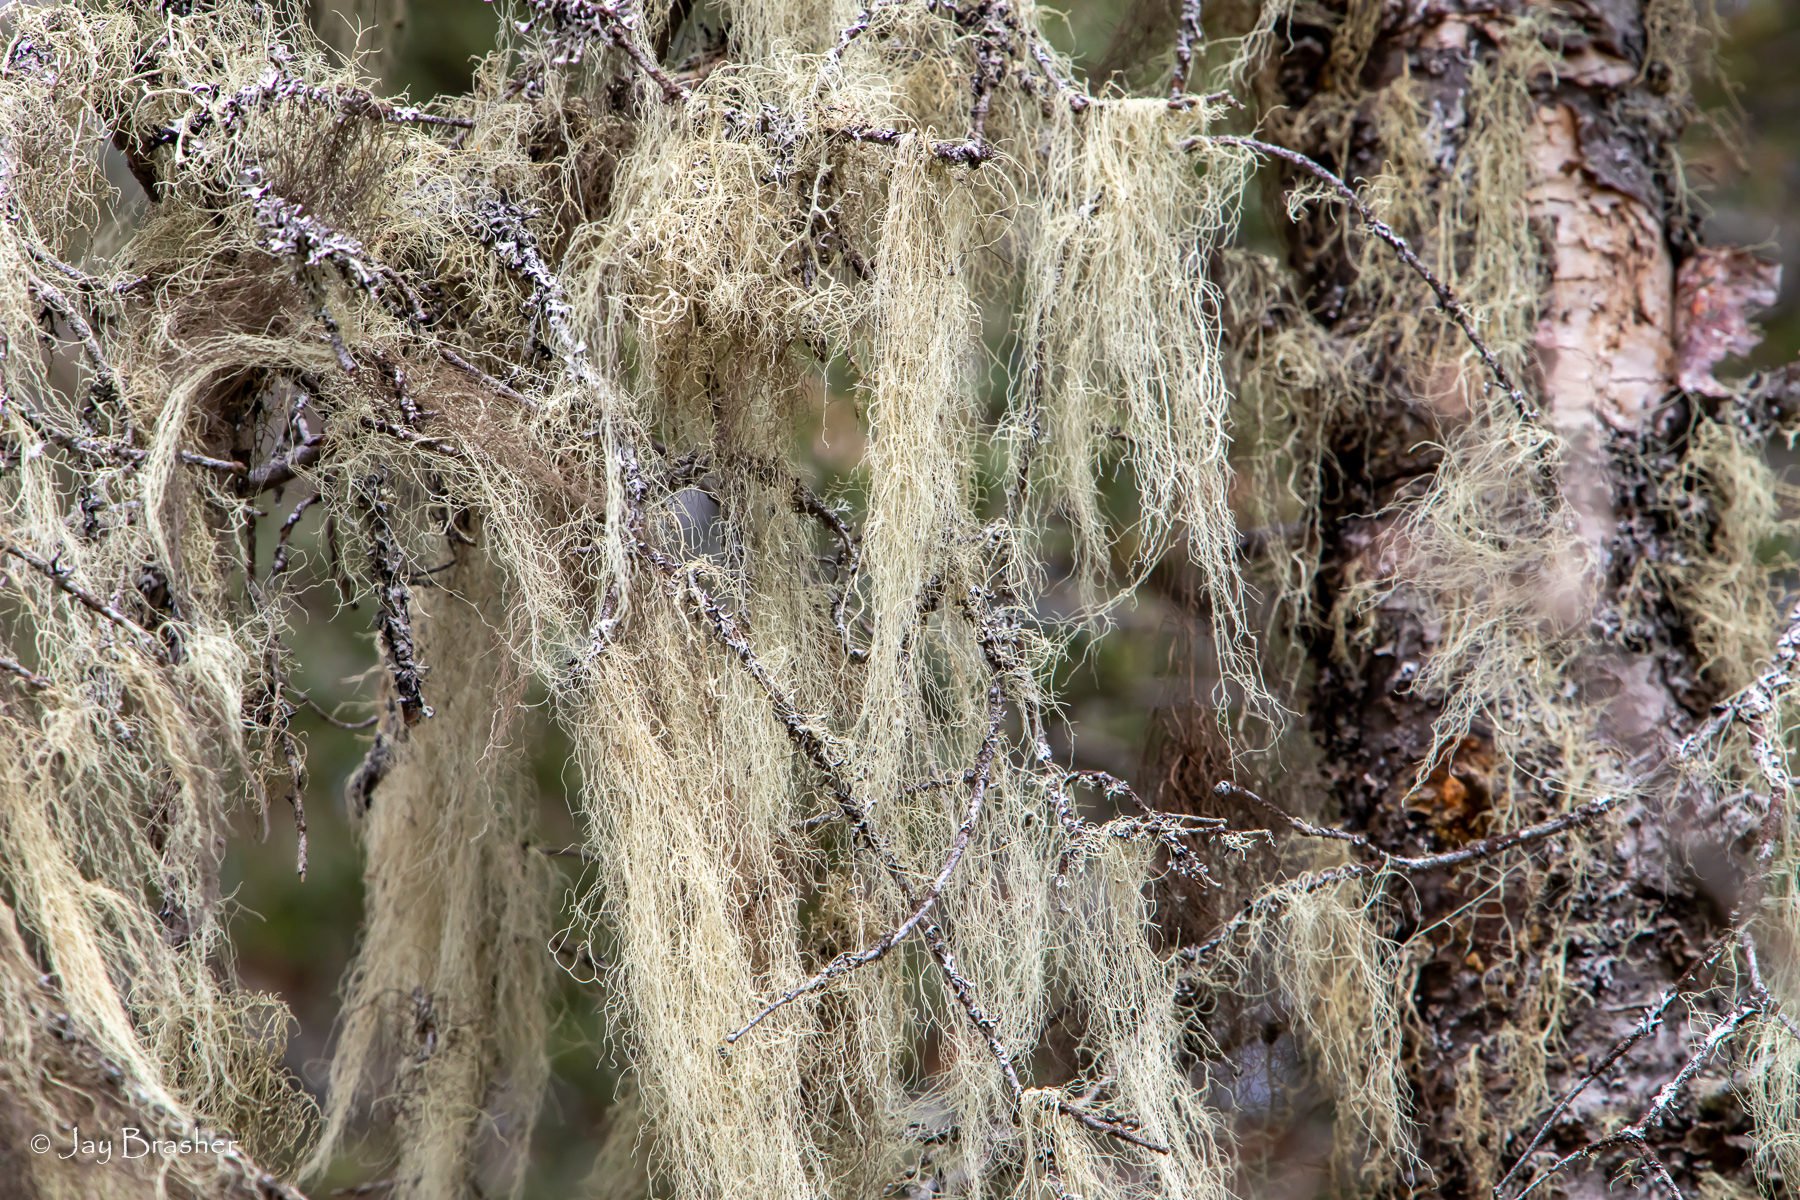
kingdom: Fungi
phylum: Ascomycota
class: Lecanoromycetes
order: Lecanorales
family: Parmeliaceae
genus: Usnea
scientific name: Usnea cavernosa
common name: Pitted beard lichen
